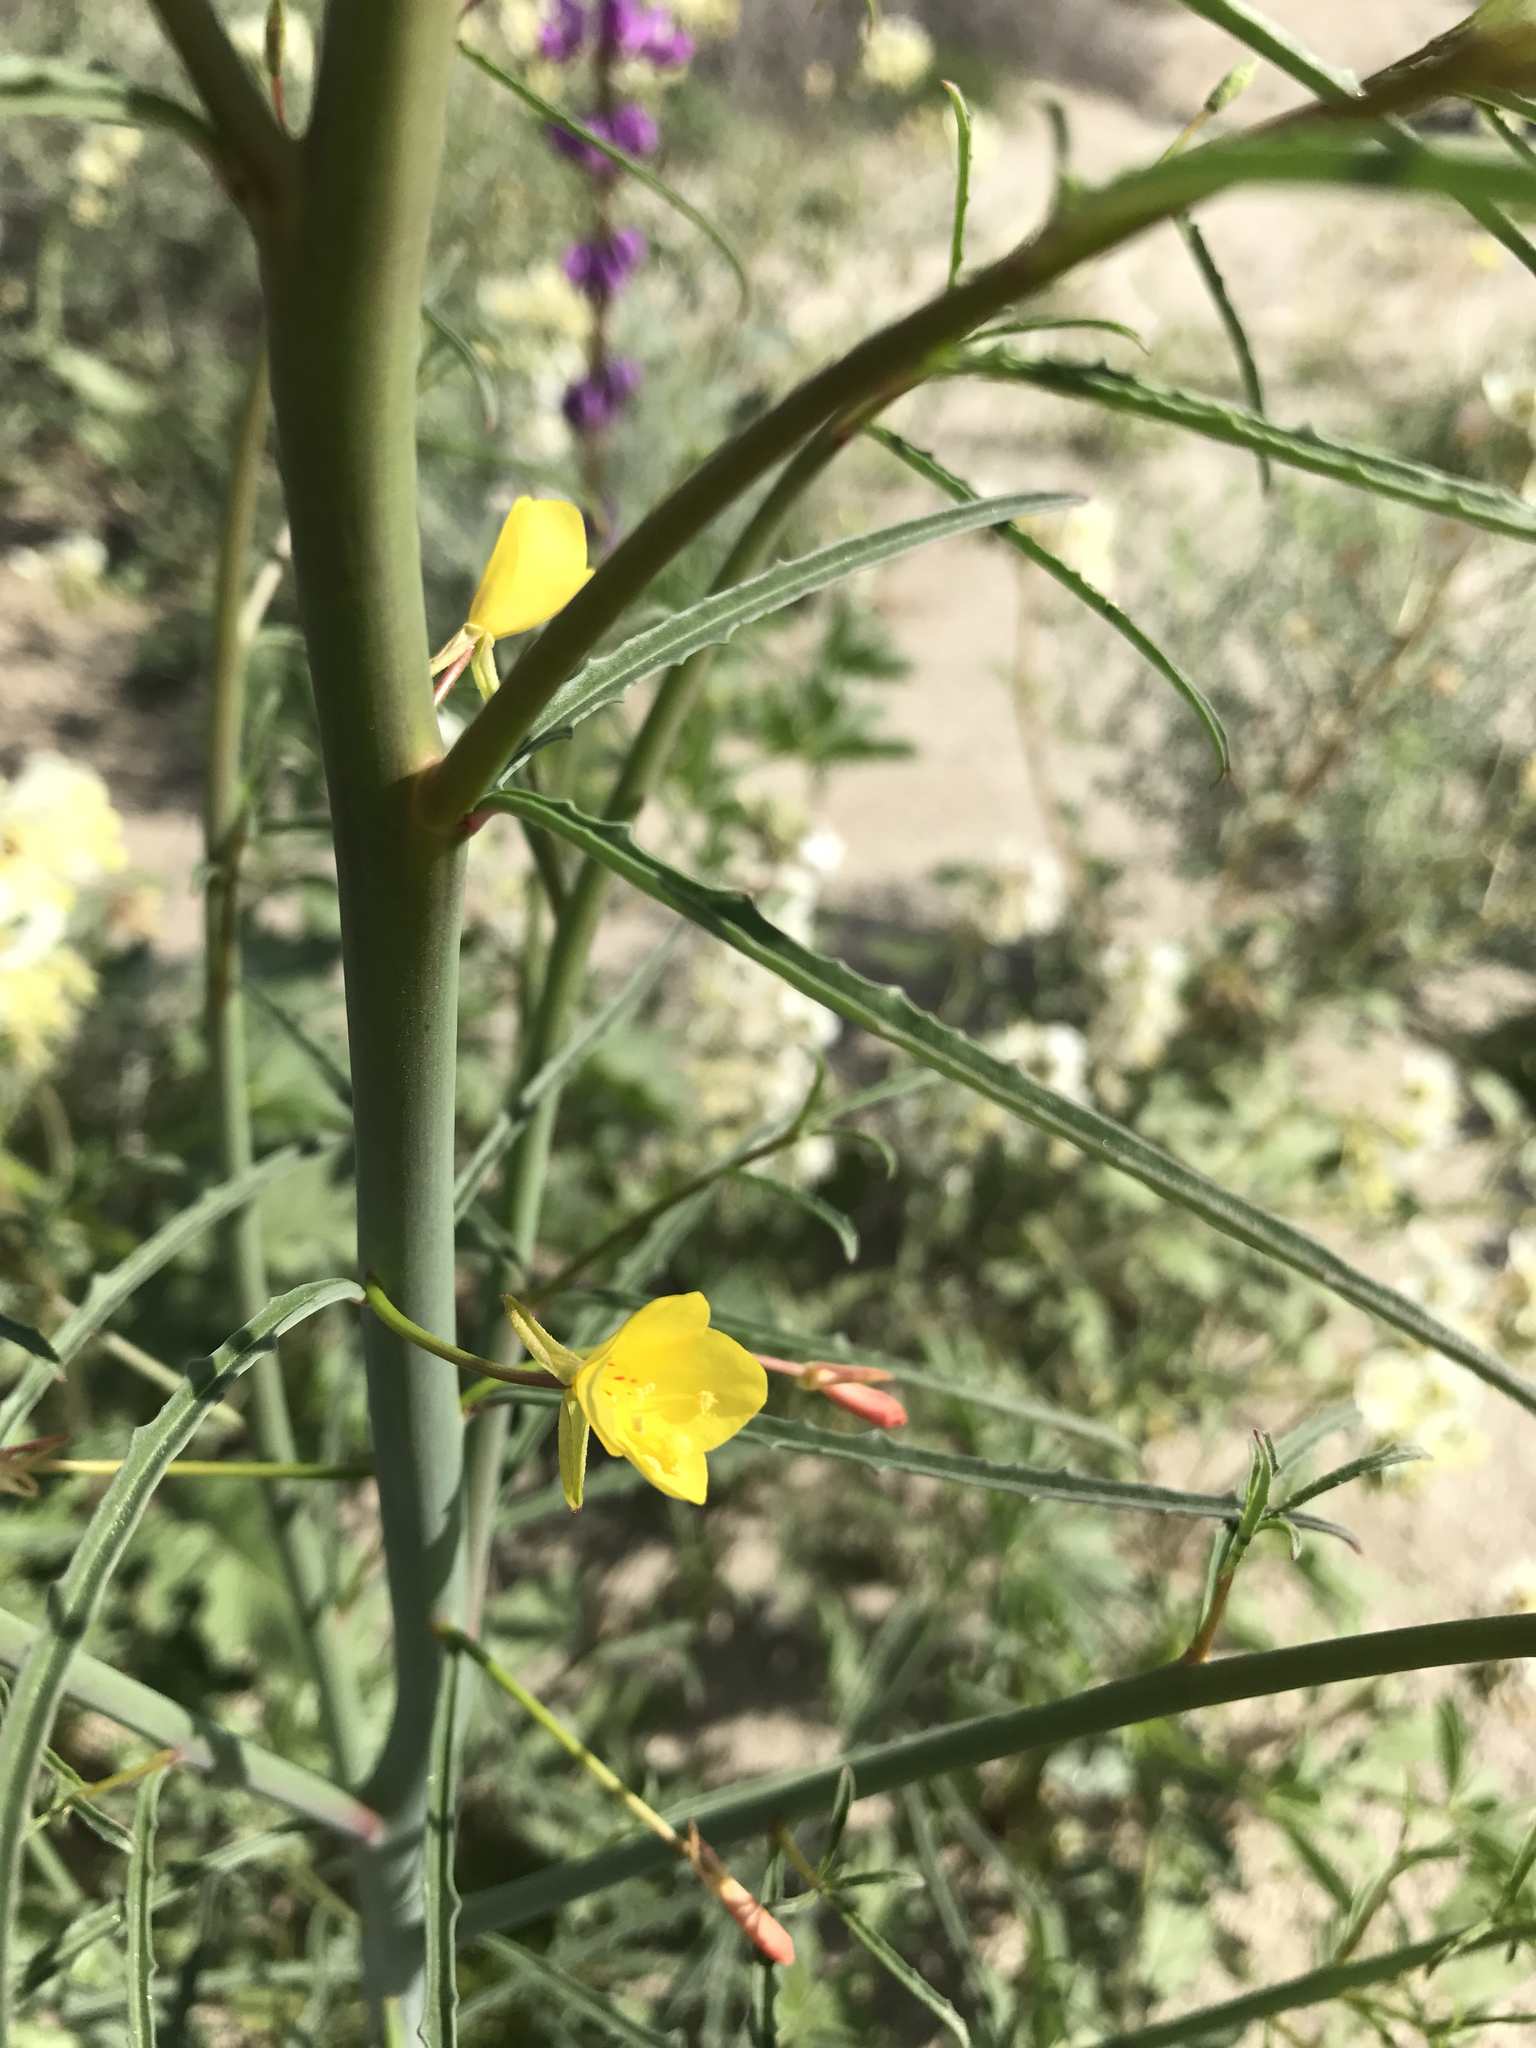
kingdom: Plantae
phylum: Tracheophyta
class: Magnoliopsida
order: Myrtales
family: Onagraceae
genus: Eulobus
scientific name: Eulobus californicus
